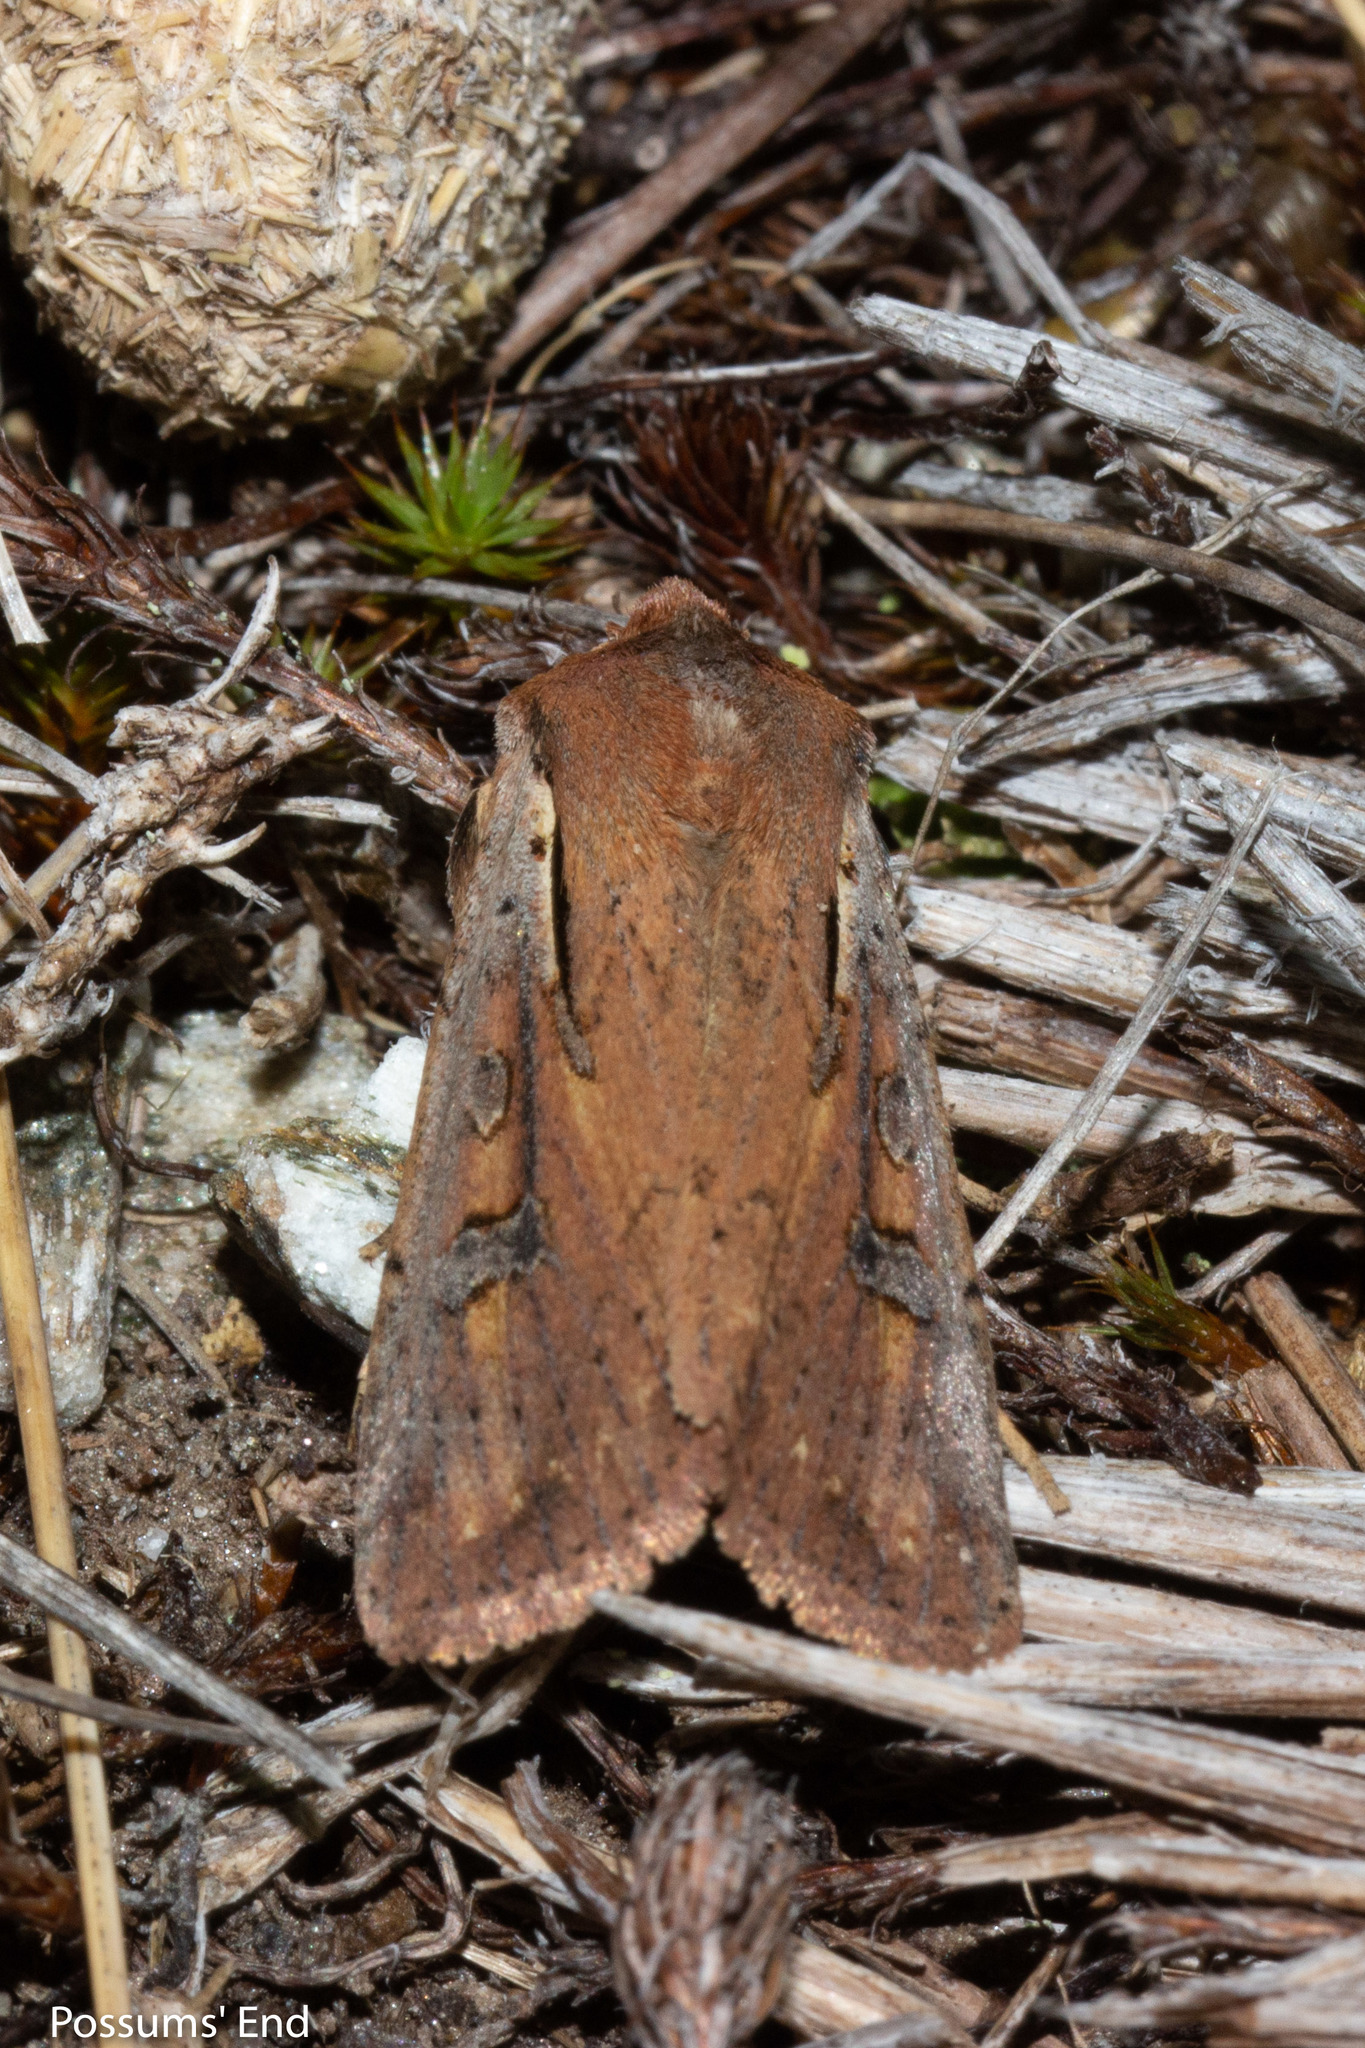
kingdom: Animalia
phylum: Arthropoda
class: Insecta
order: Lepidoptera
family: Noctuidae
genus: Ichneutica
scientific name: Ichneutica atristriga
